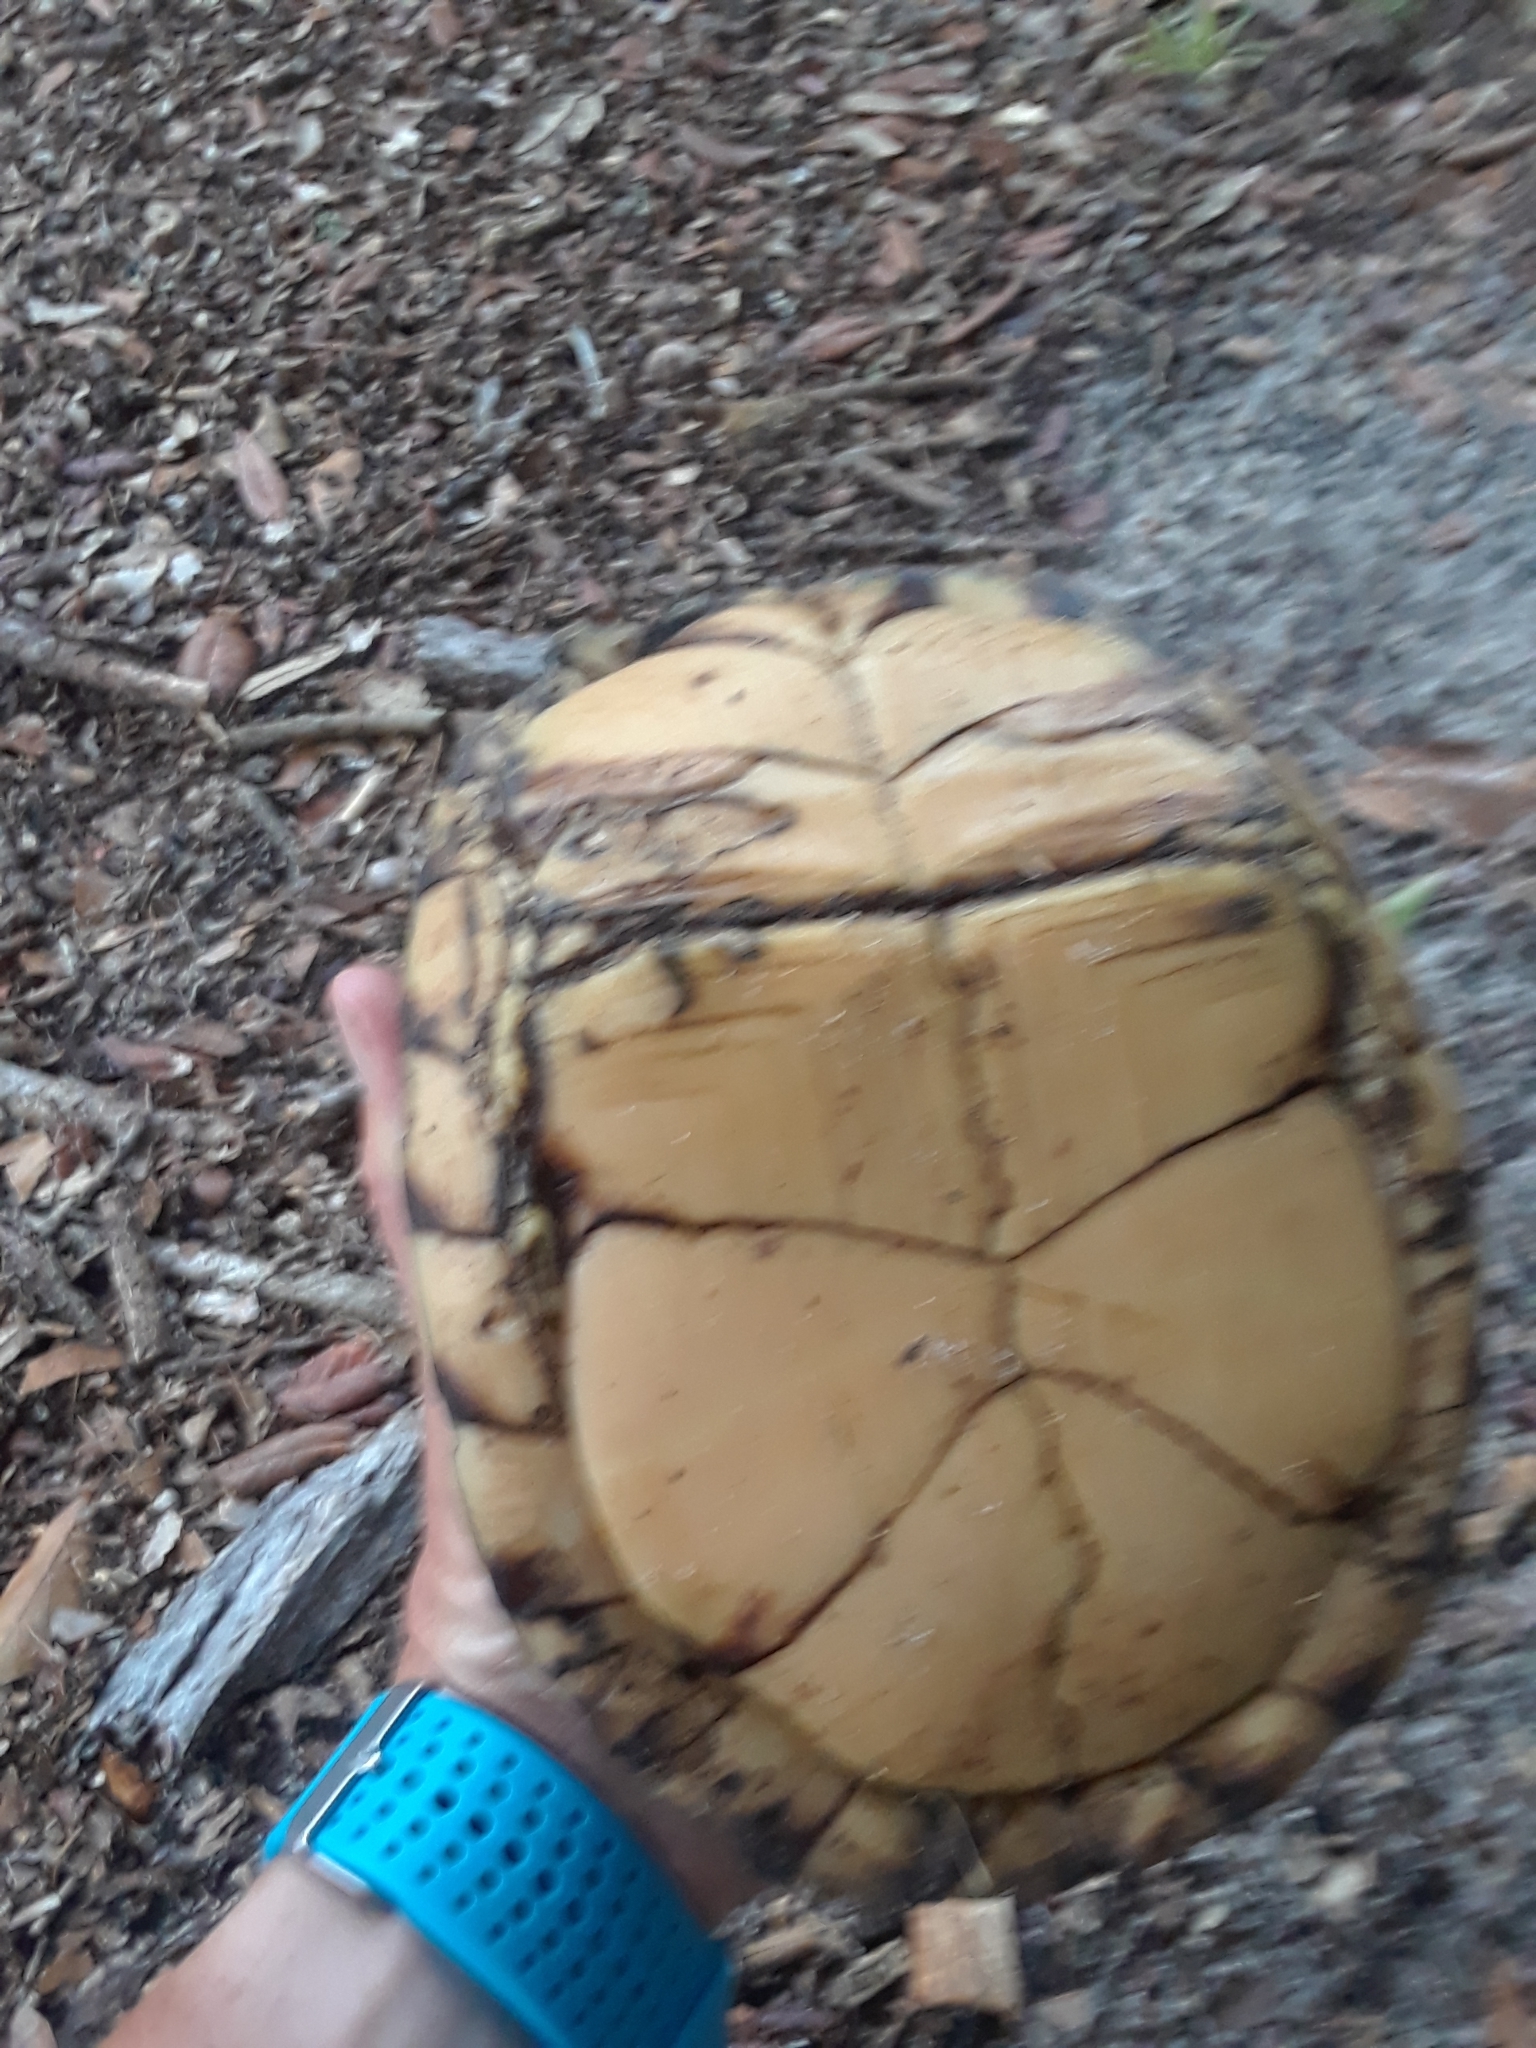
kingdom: Animalia
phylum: Chordata
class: Testudines
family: Emydidae
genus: Terrapene
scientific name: Terrapene carolina
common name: Common box turtle
